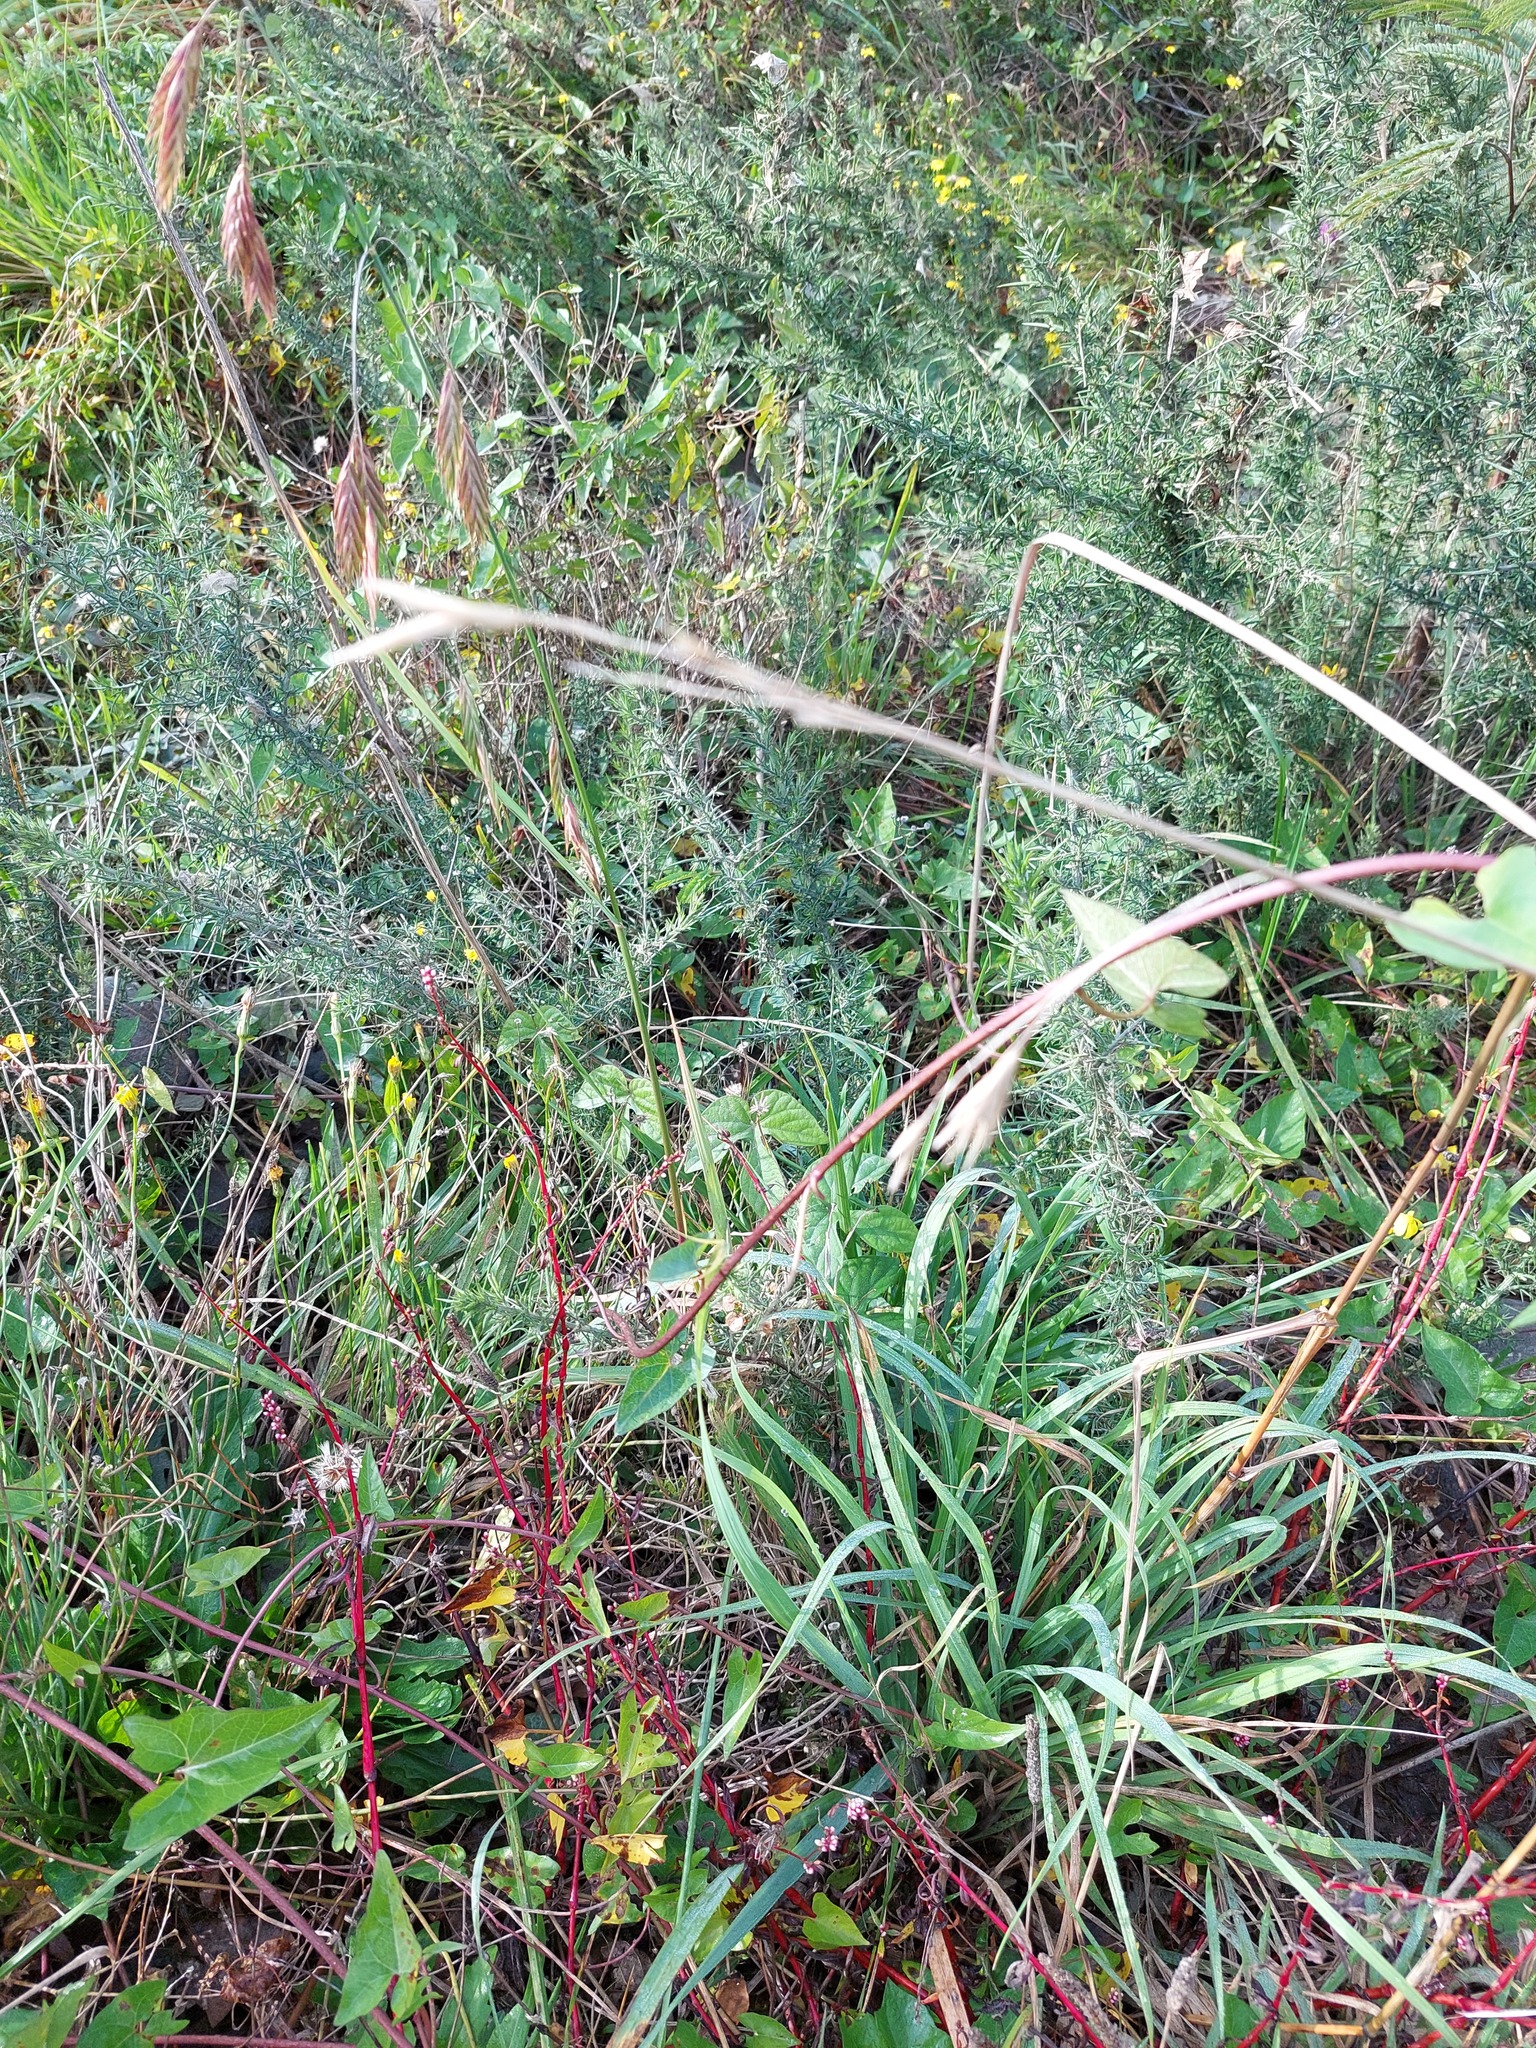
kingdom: Plantae
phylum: Tracheophyta
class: Liliopsida
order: Poales
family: Poaceae
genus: Bromus
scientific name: Bromus catharticus
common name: Rescuegrass
